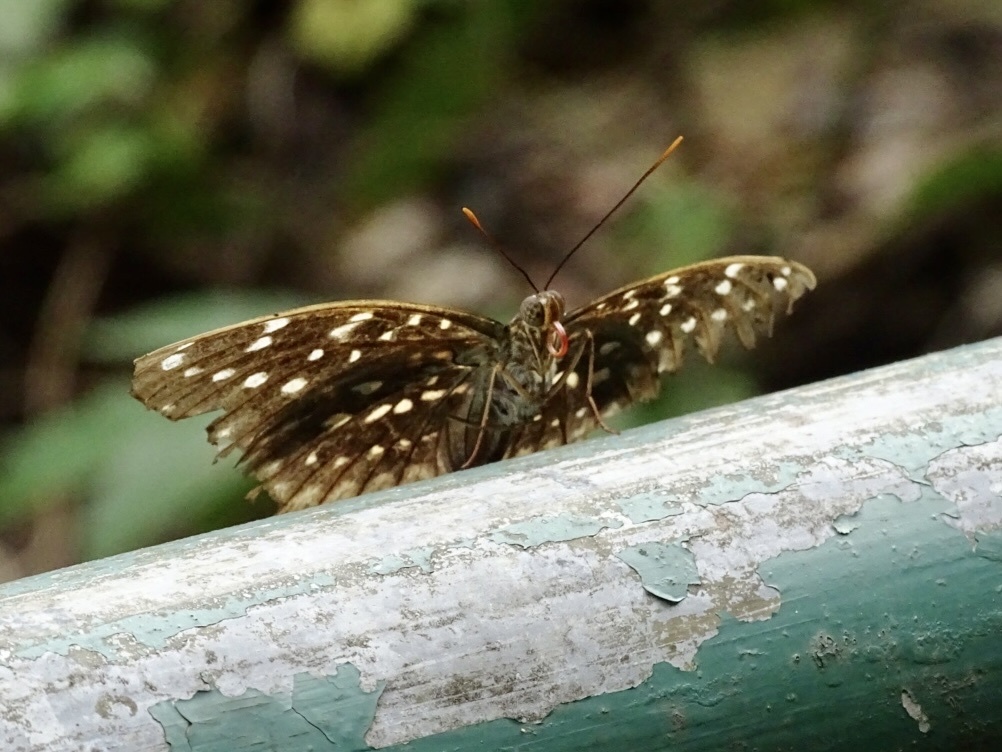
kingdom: Animalia
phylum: Arthropoda
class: Insecta
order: Lepidoptera
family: Nymphalidae
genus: Lexias
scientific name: Lexias pardalis
